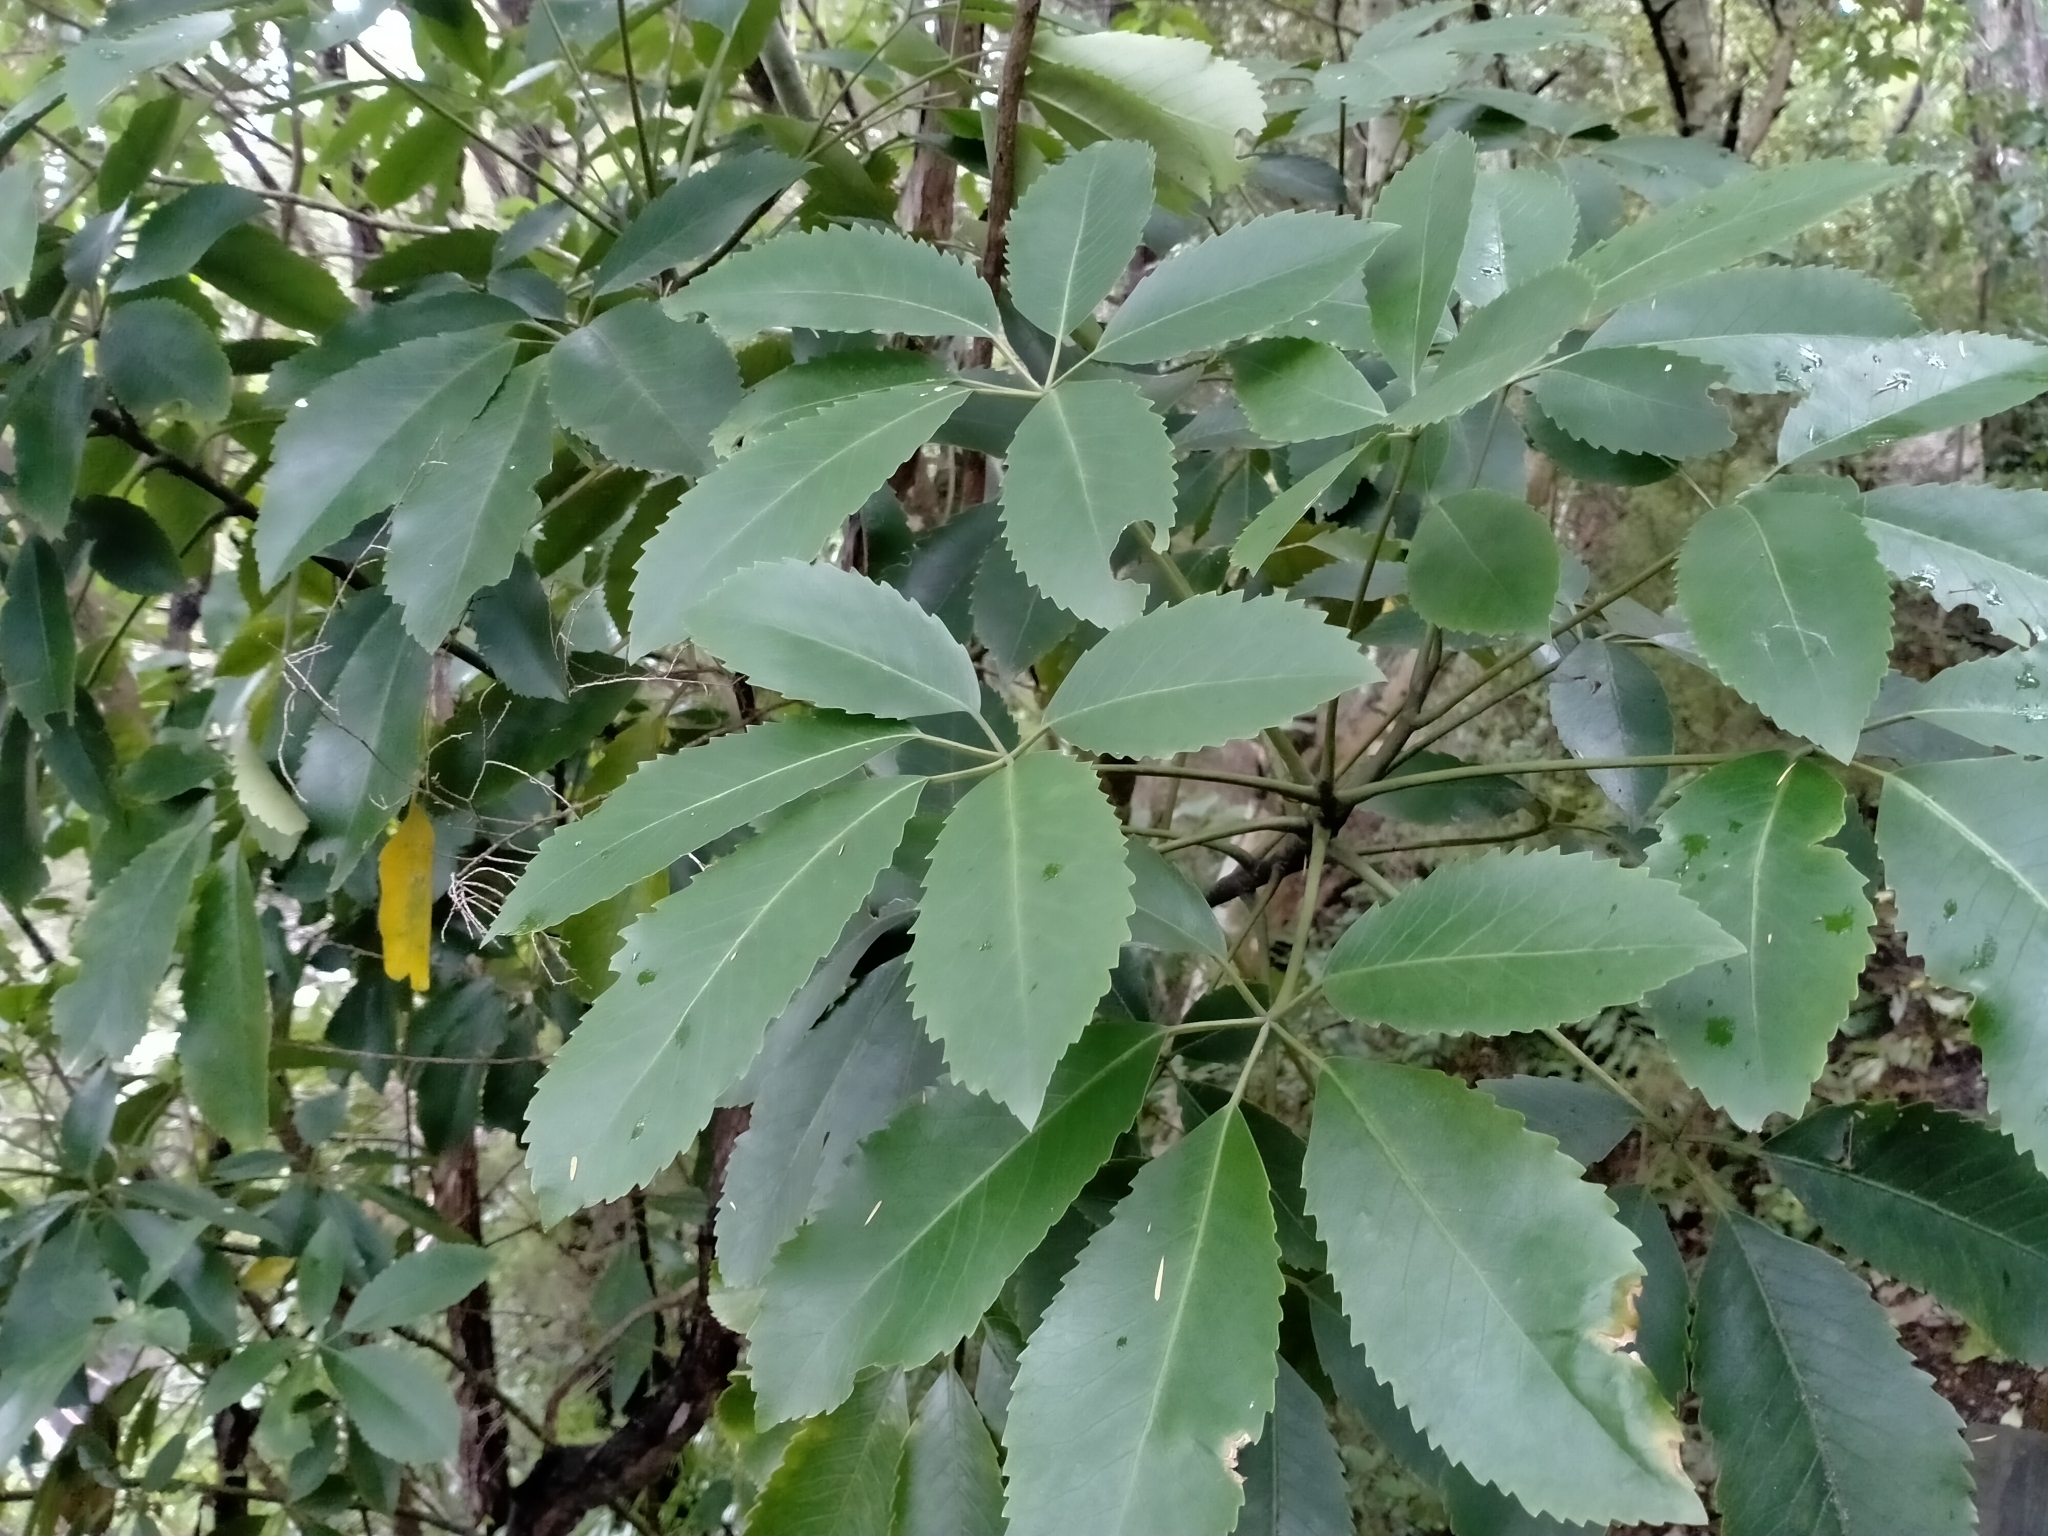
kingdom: Plantae
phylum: Tracheophyta
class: Magnoliopsida
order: Apiales
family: Araliaceae
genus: Neopanax
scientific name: Neopanax arboreus
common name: Five-fingers
